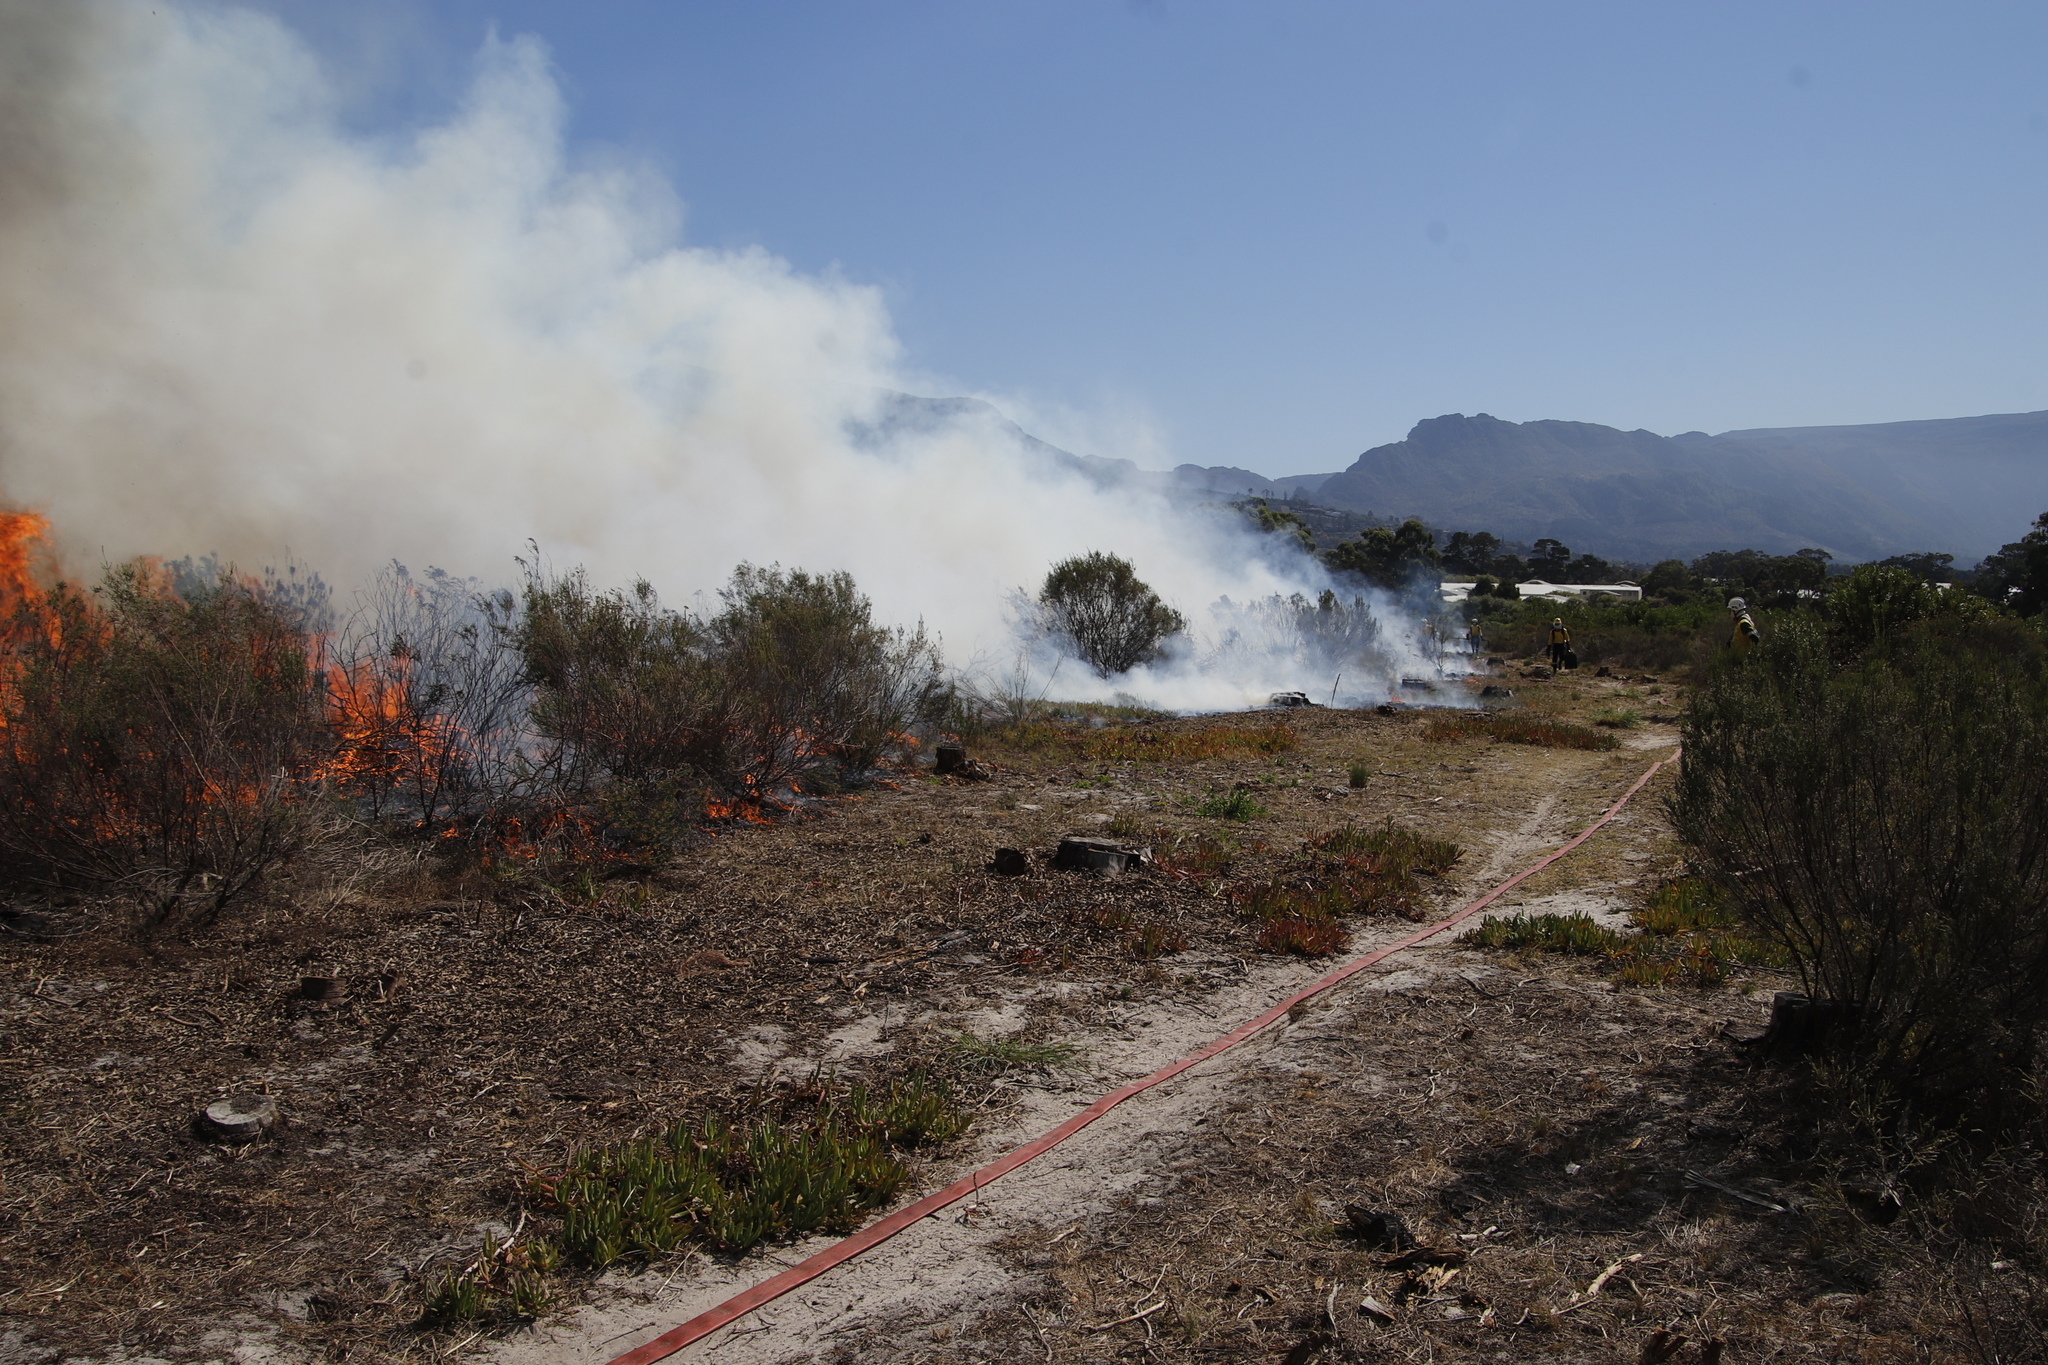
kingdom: Plantae
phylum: Tracheophyta
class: Magnoliopsida
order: Caryophyllales
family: Aizoaceae
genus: Carpobrotus
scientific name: Carpobrotus edulis
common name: Hottentot-fig
